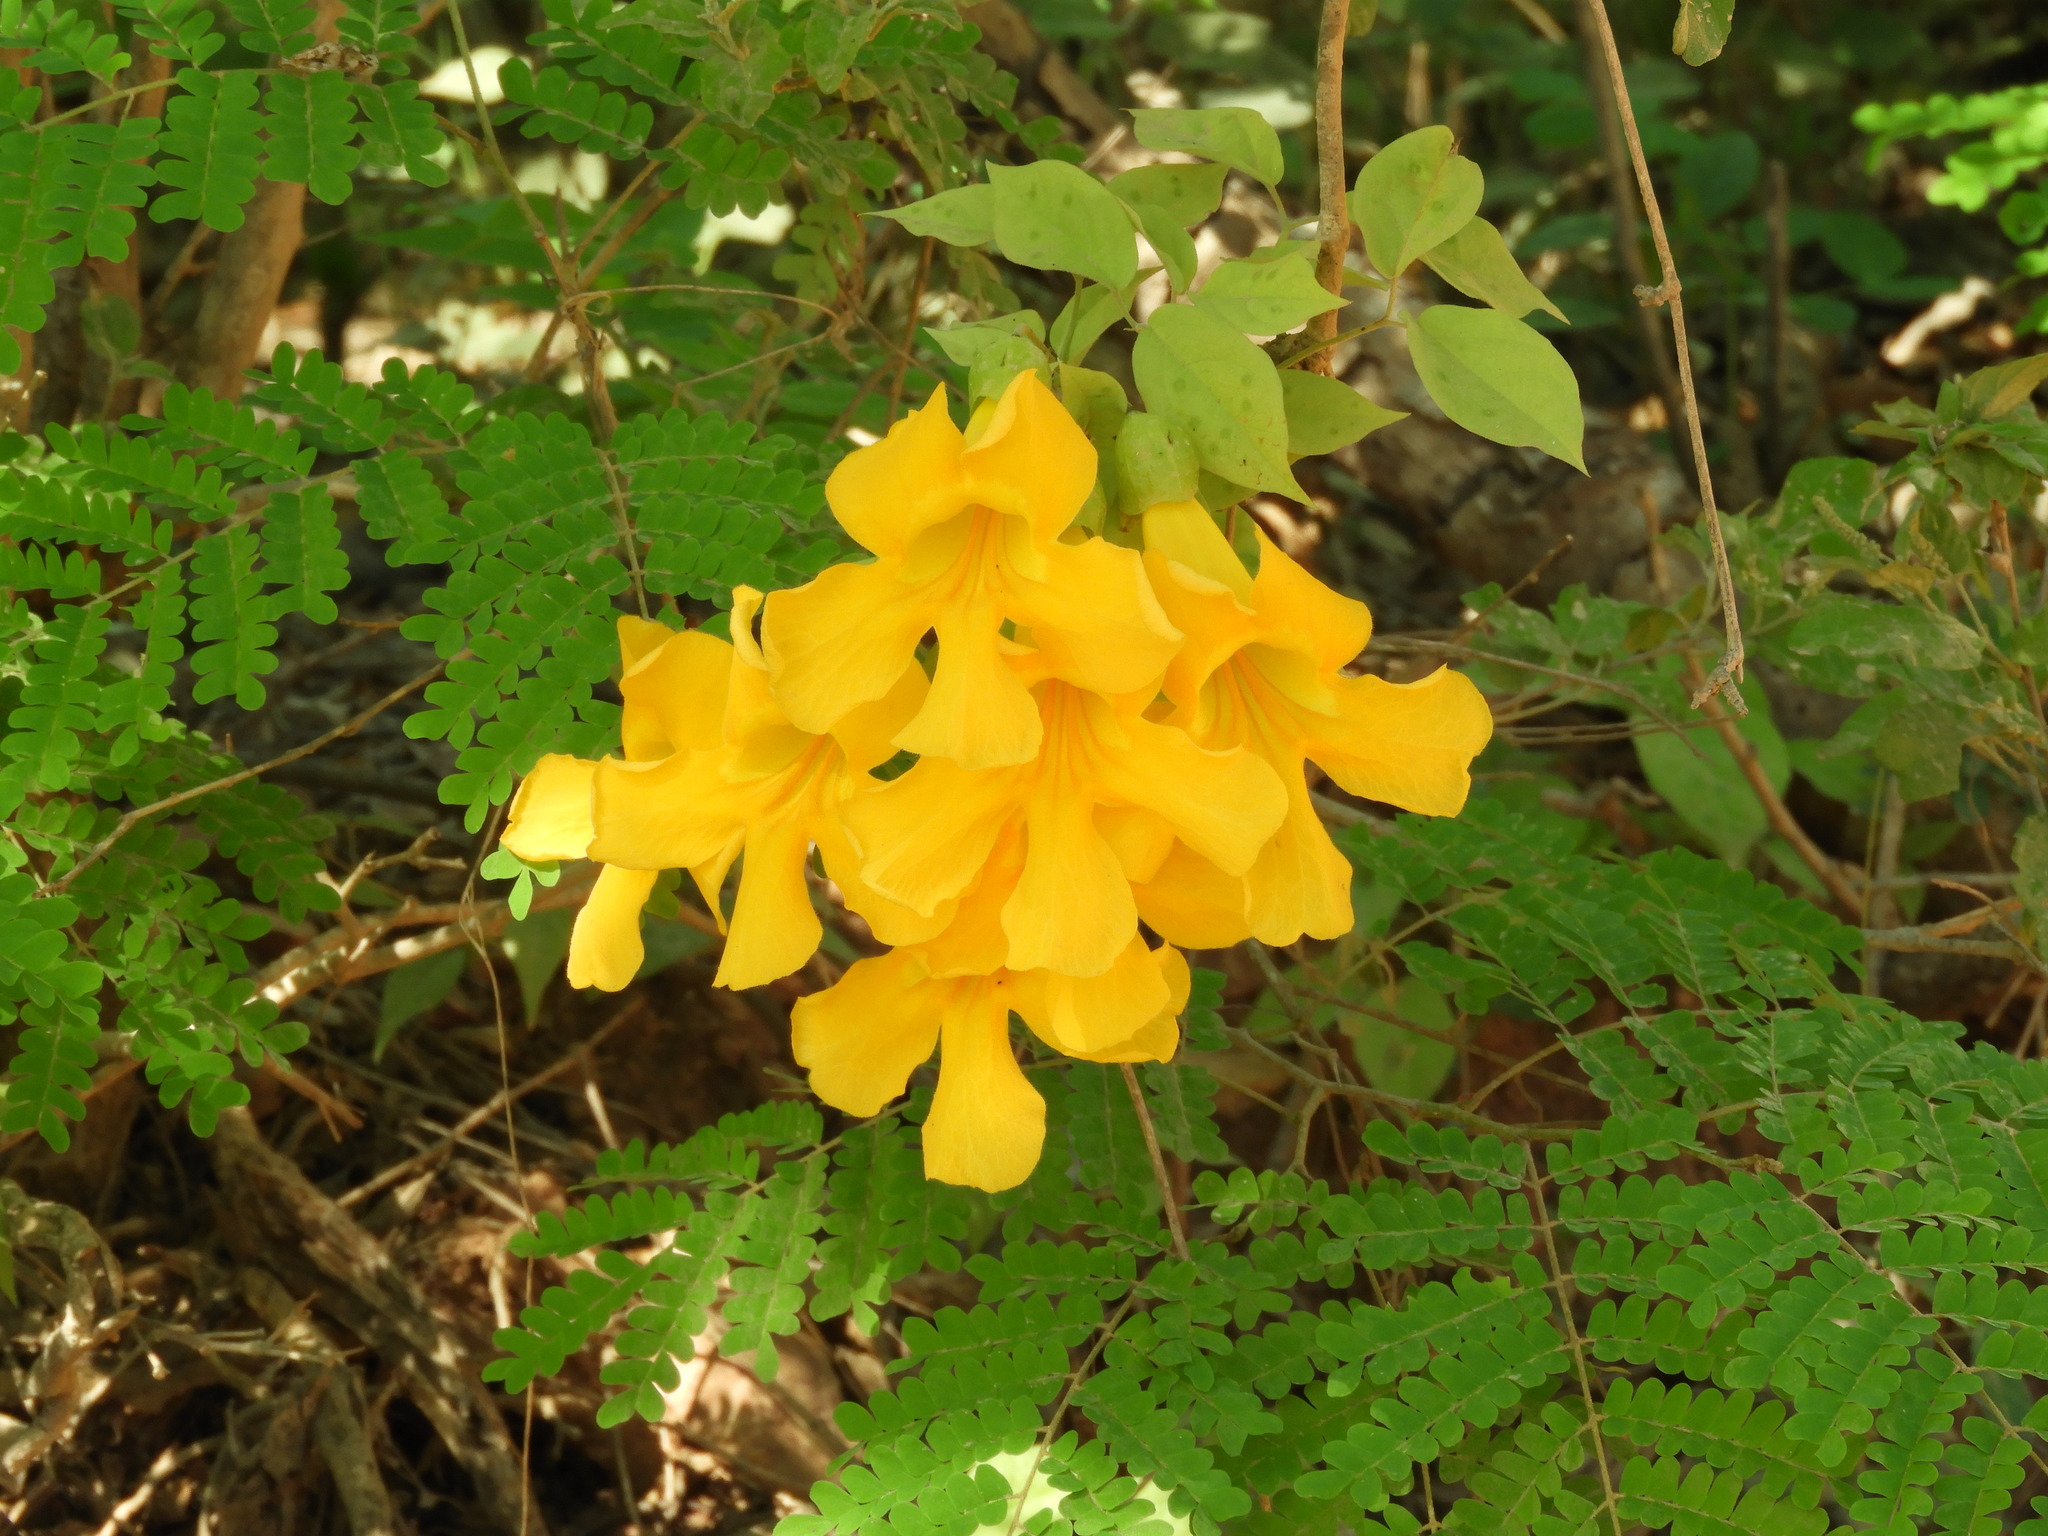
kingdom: Plantae
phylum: Tracheophyta
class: Magnoliopsida
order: Lamiales
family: Bignoniaceae
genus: Adenocalymma
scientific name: Adenocalymma inundatum
